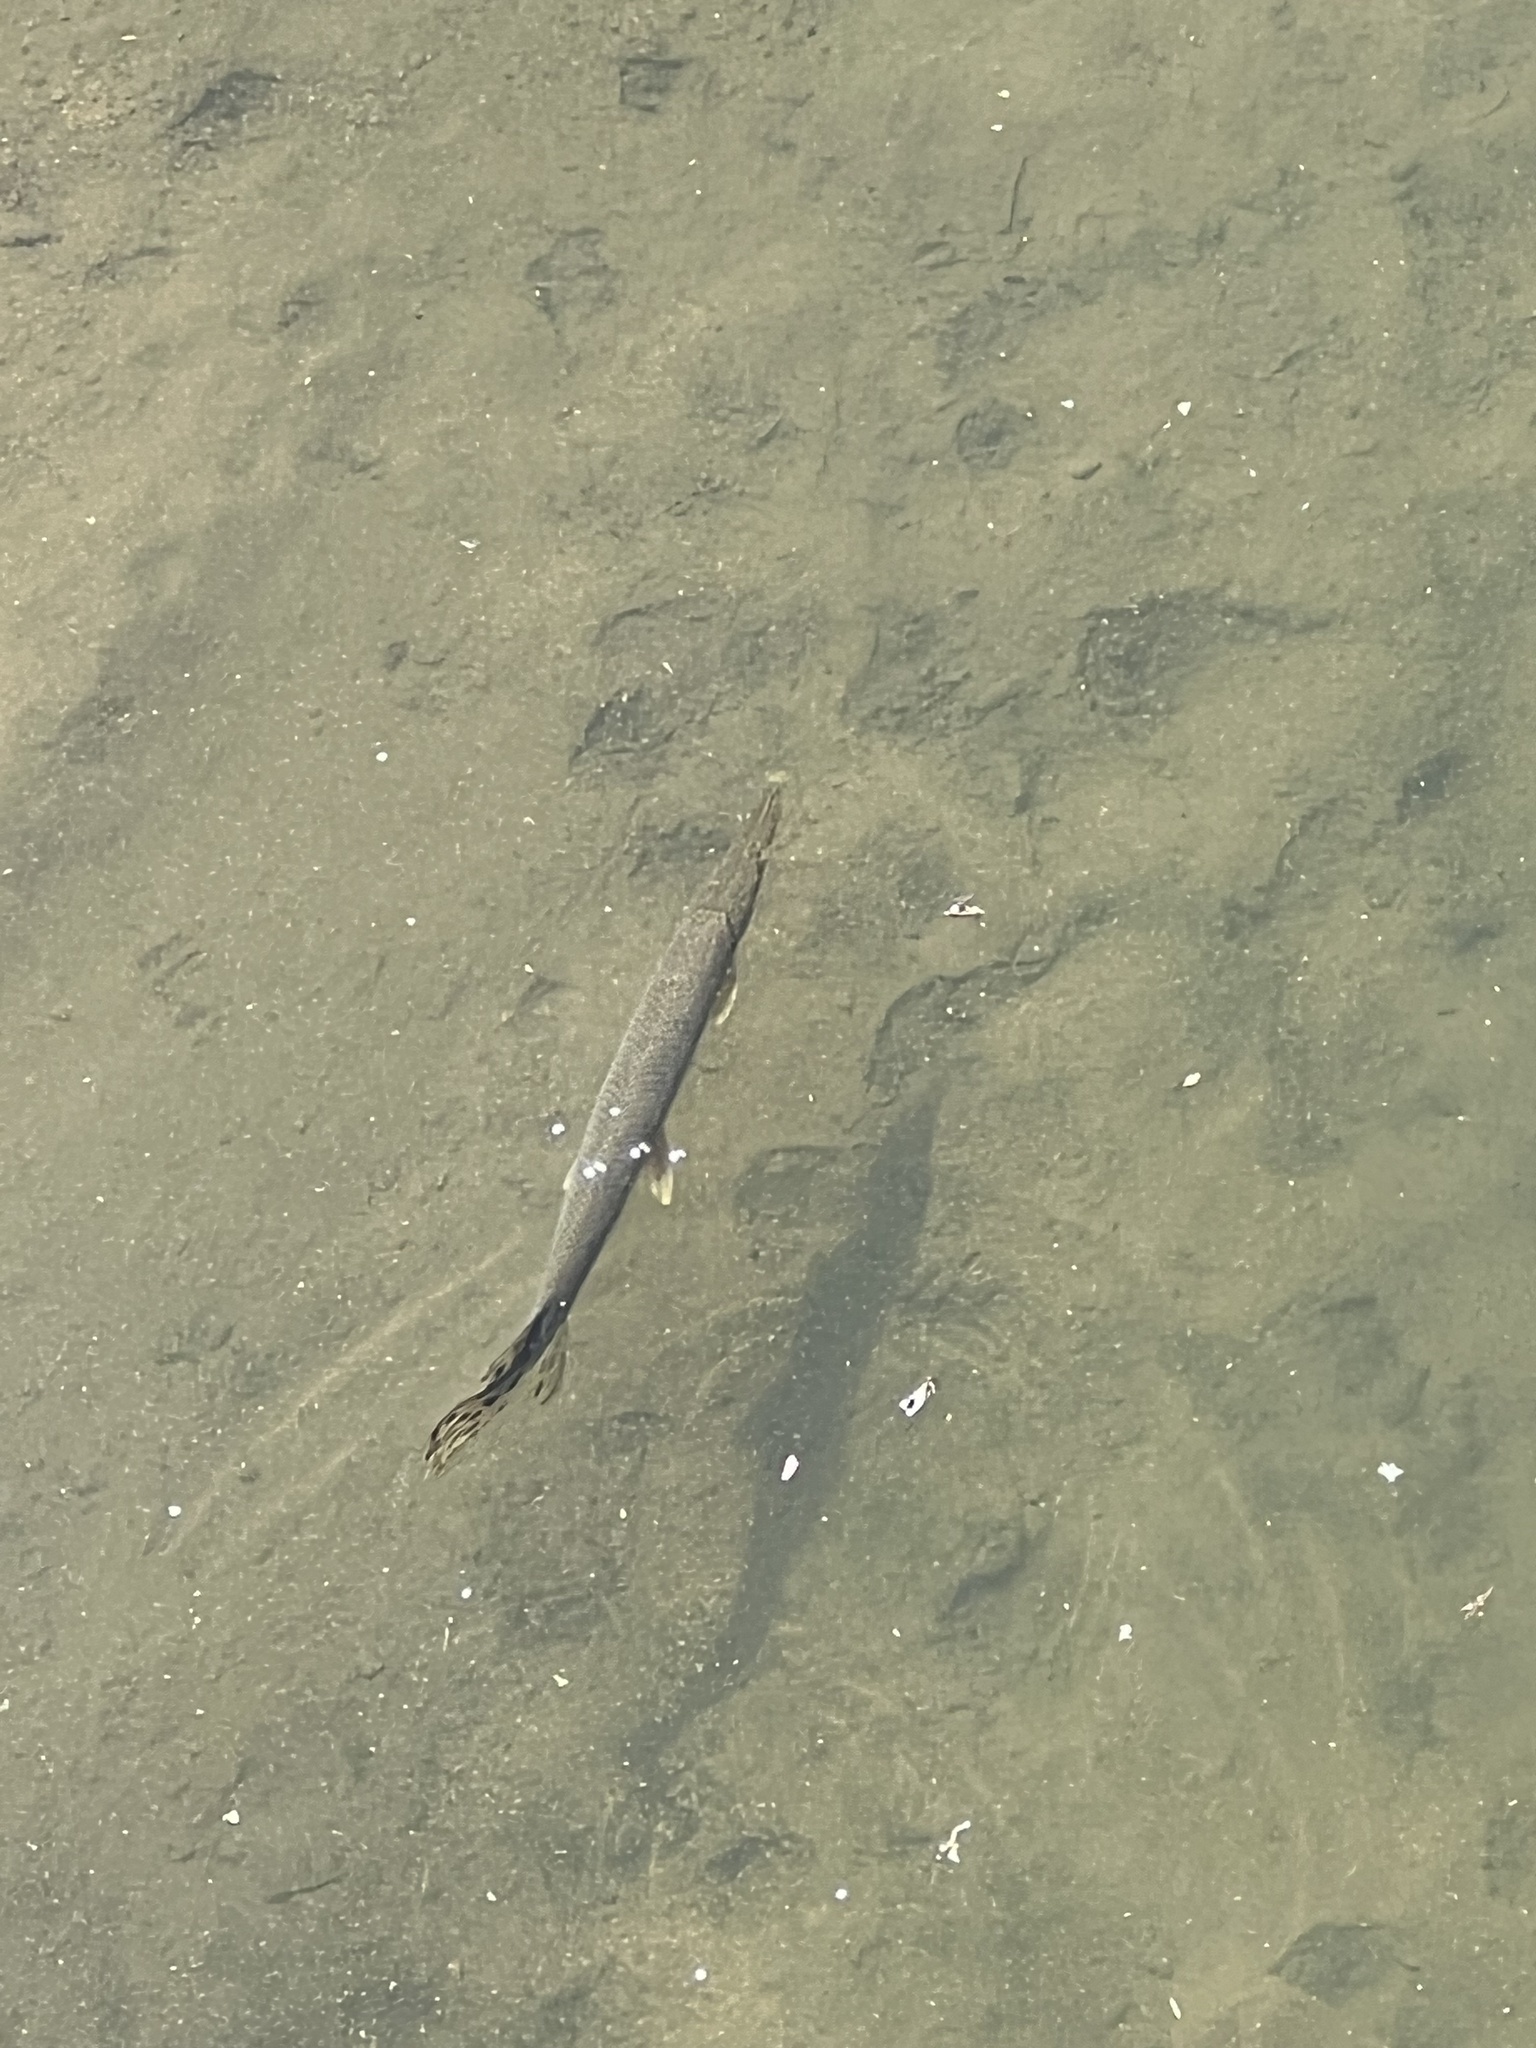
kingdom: Animalia
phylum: Chordata
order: Lepisosteiformes
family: Lepisosteidae
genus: Lepisosteus
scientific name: Lepisosteus platostomus
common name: Shortnose gar
